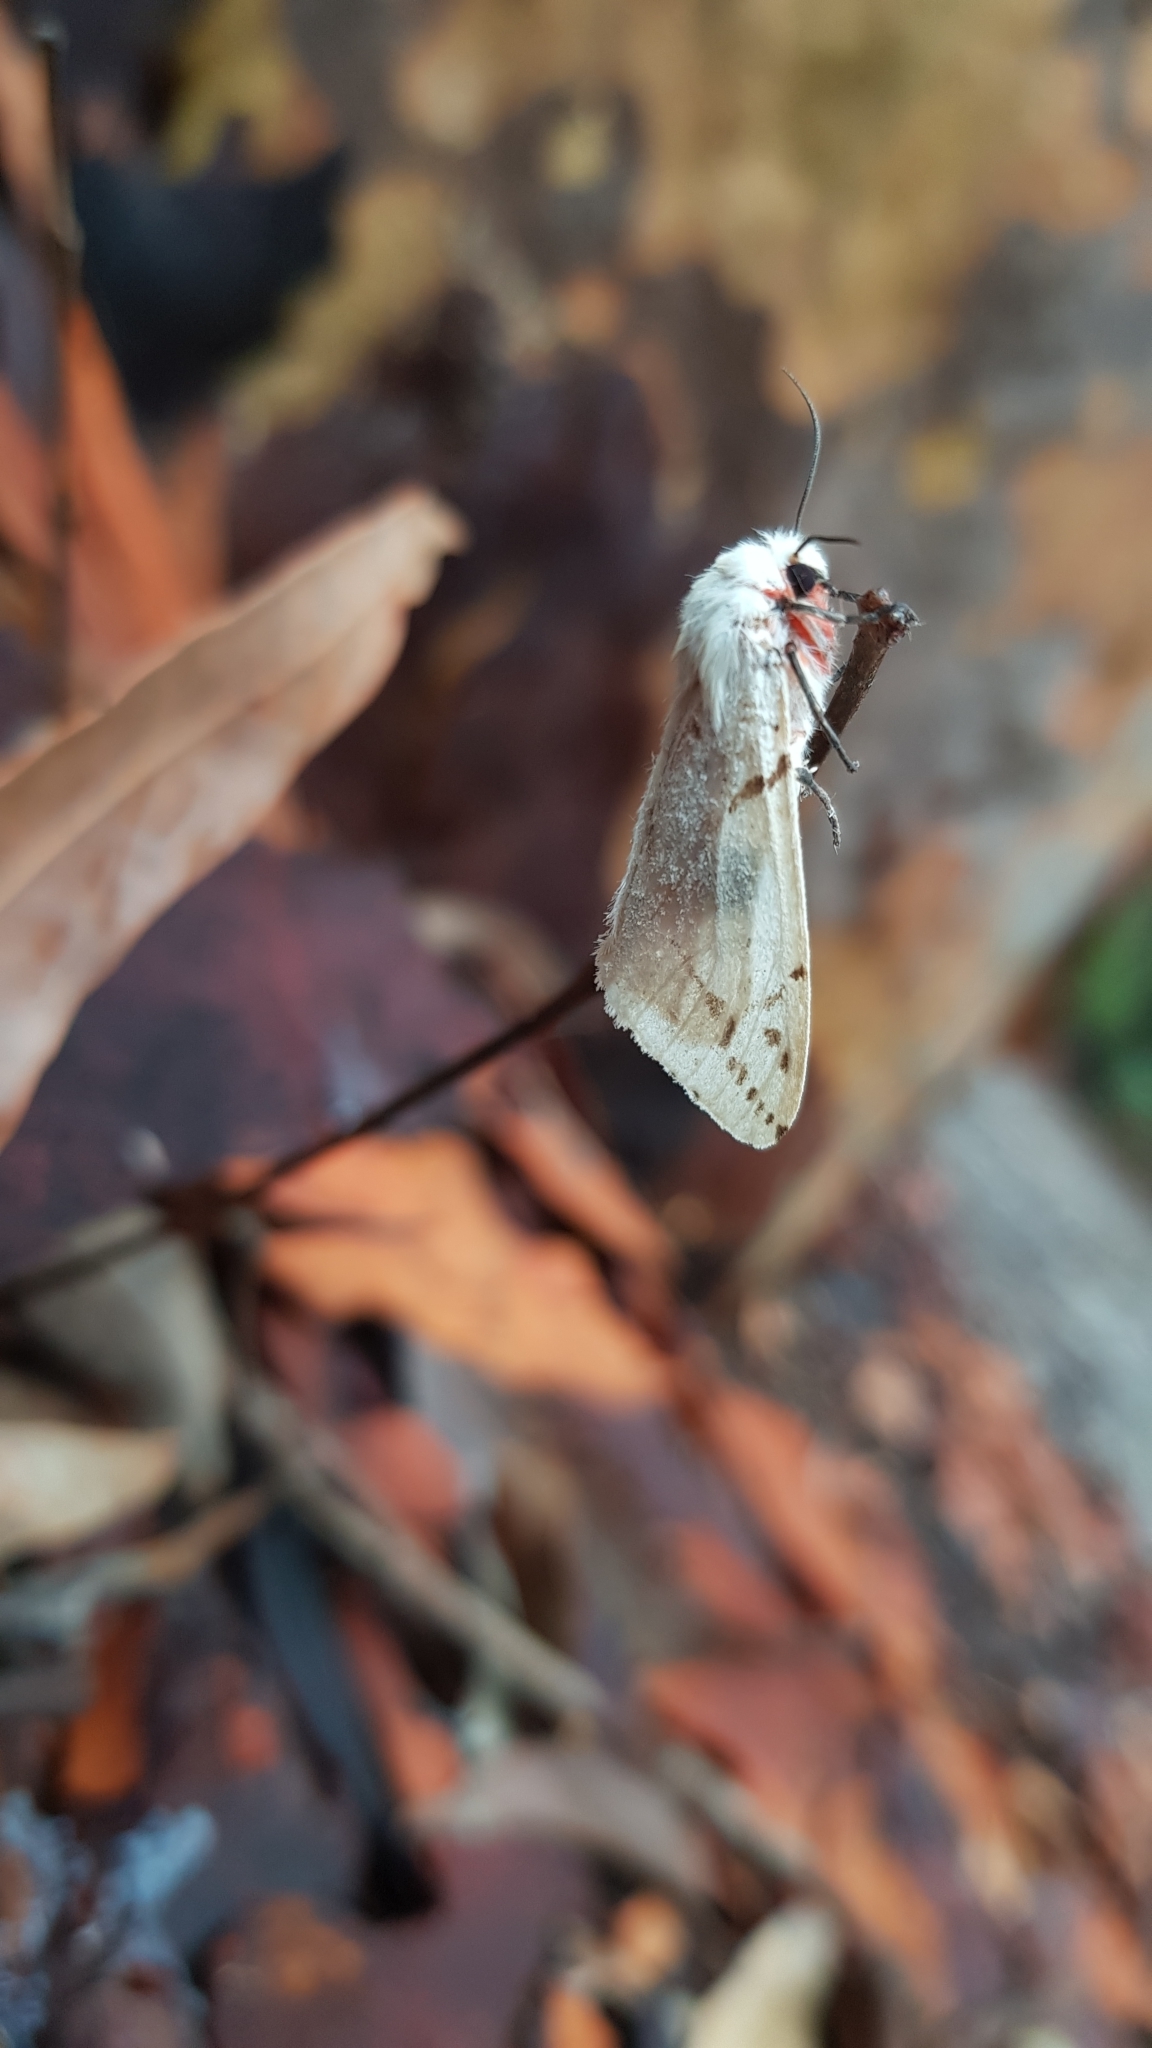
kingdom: Animalia
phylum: Arthropoda
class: Insecta
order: Lepidoptera
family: Erebidae
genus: Ardices
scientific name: Ardices canescens
